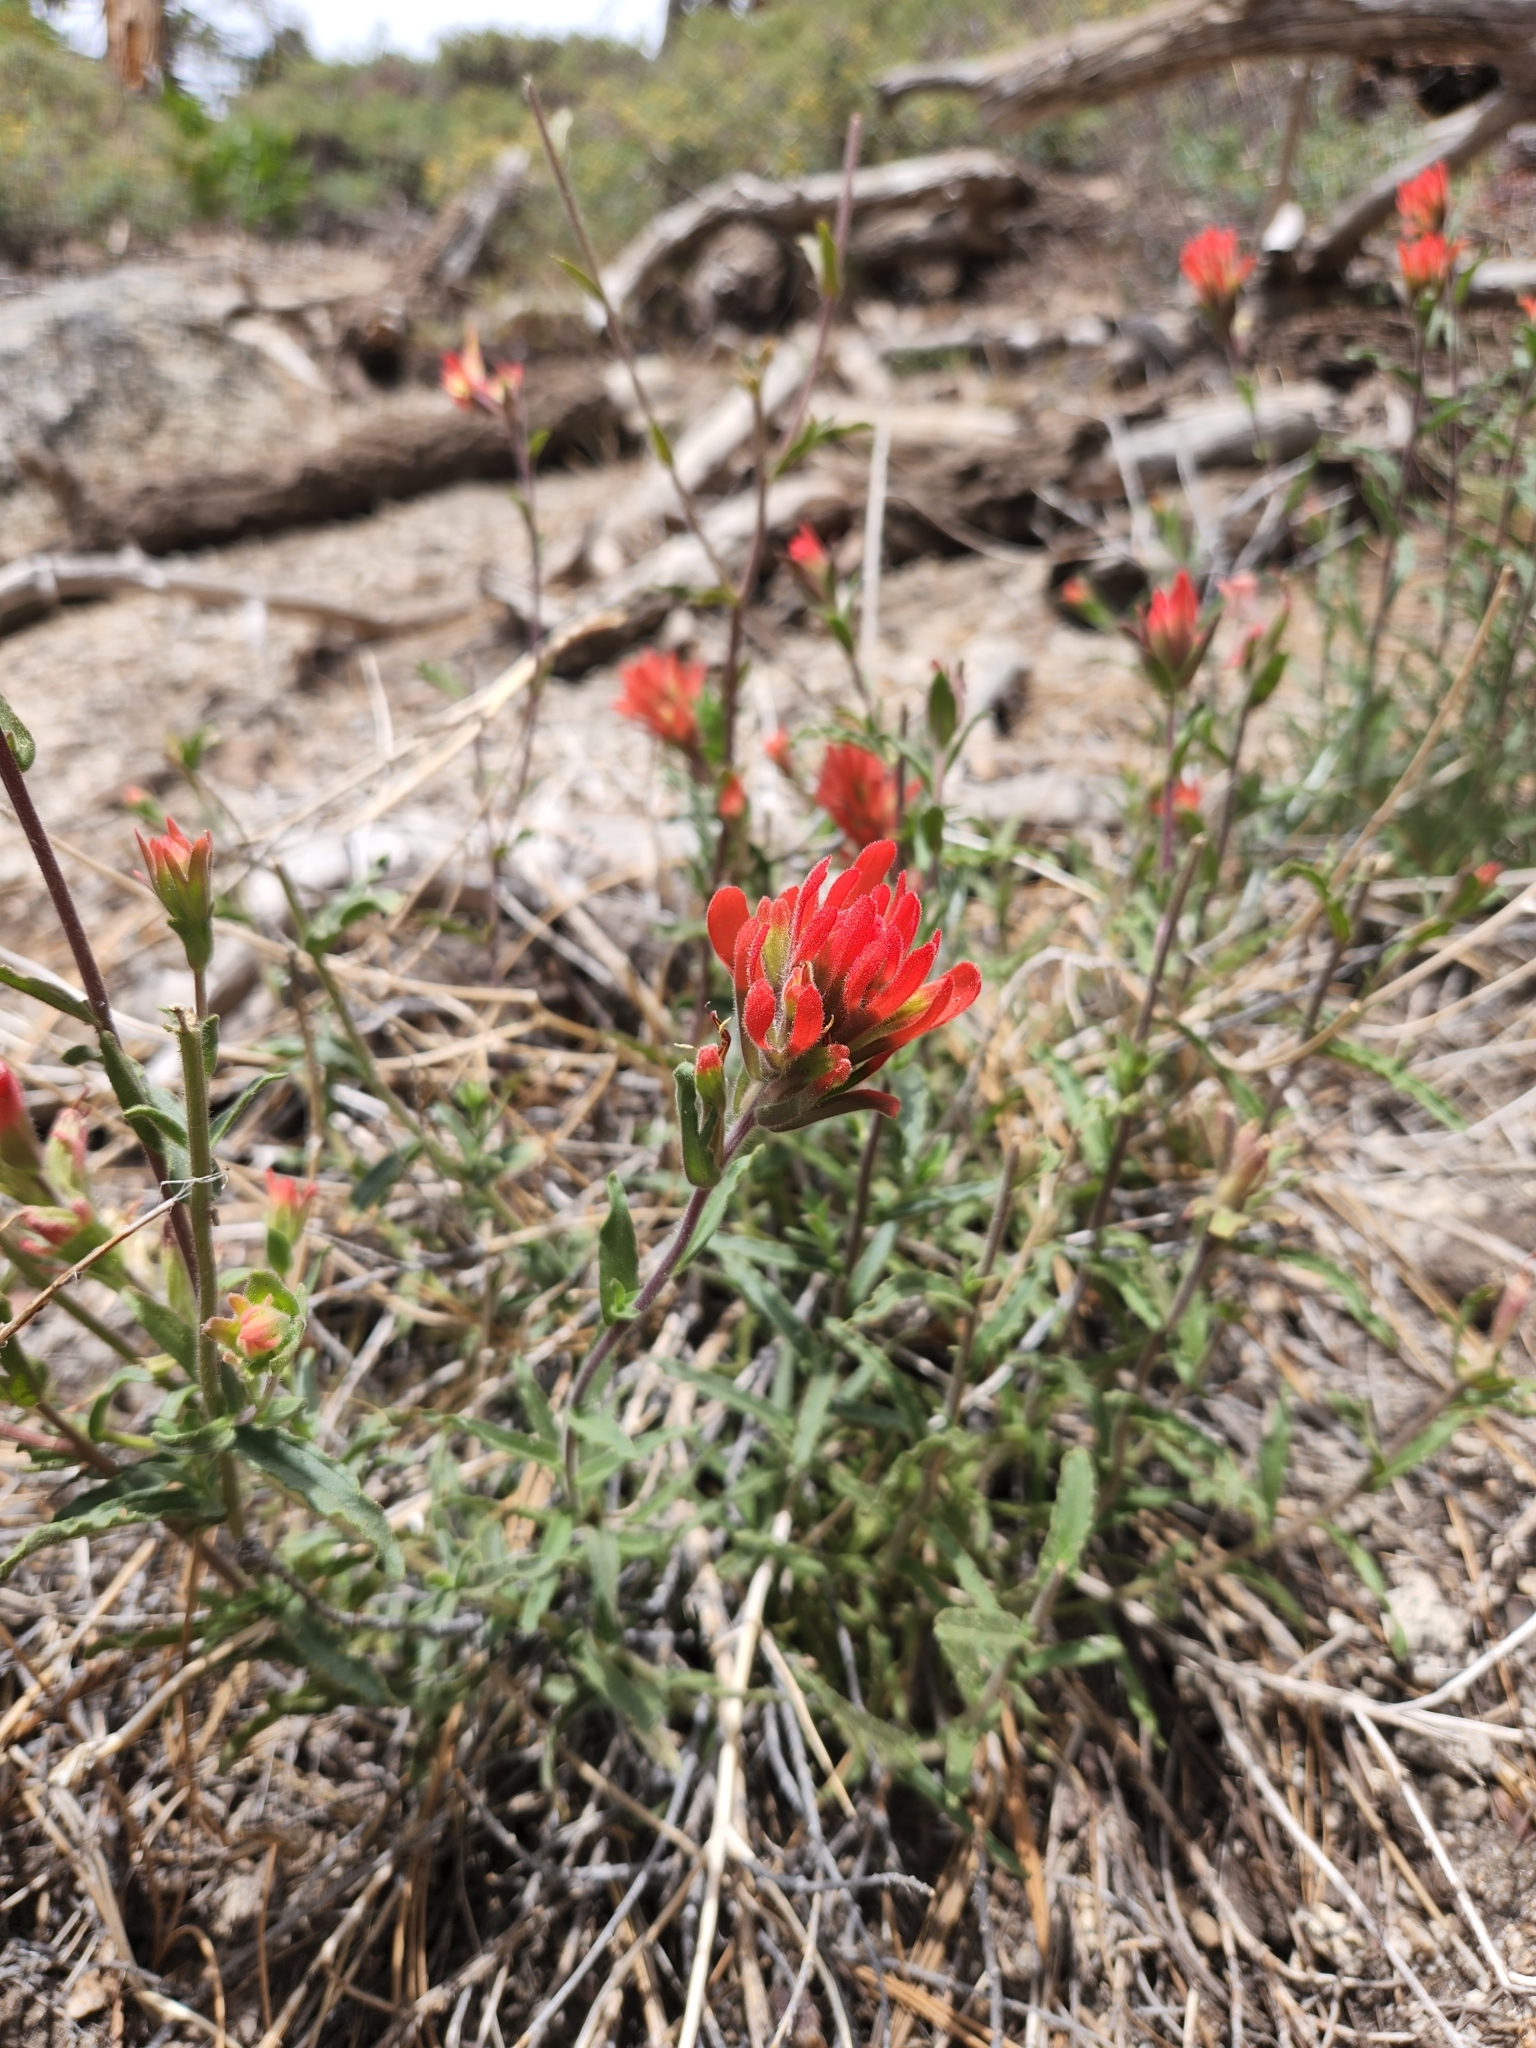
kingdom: Plantae
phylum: Tracheophyta
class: Magnoliopsida
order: Lamiales
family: Orobanchaceae
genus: Castilleja
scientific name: Castilleja martini
